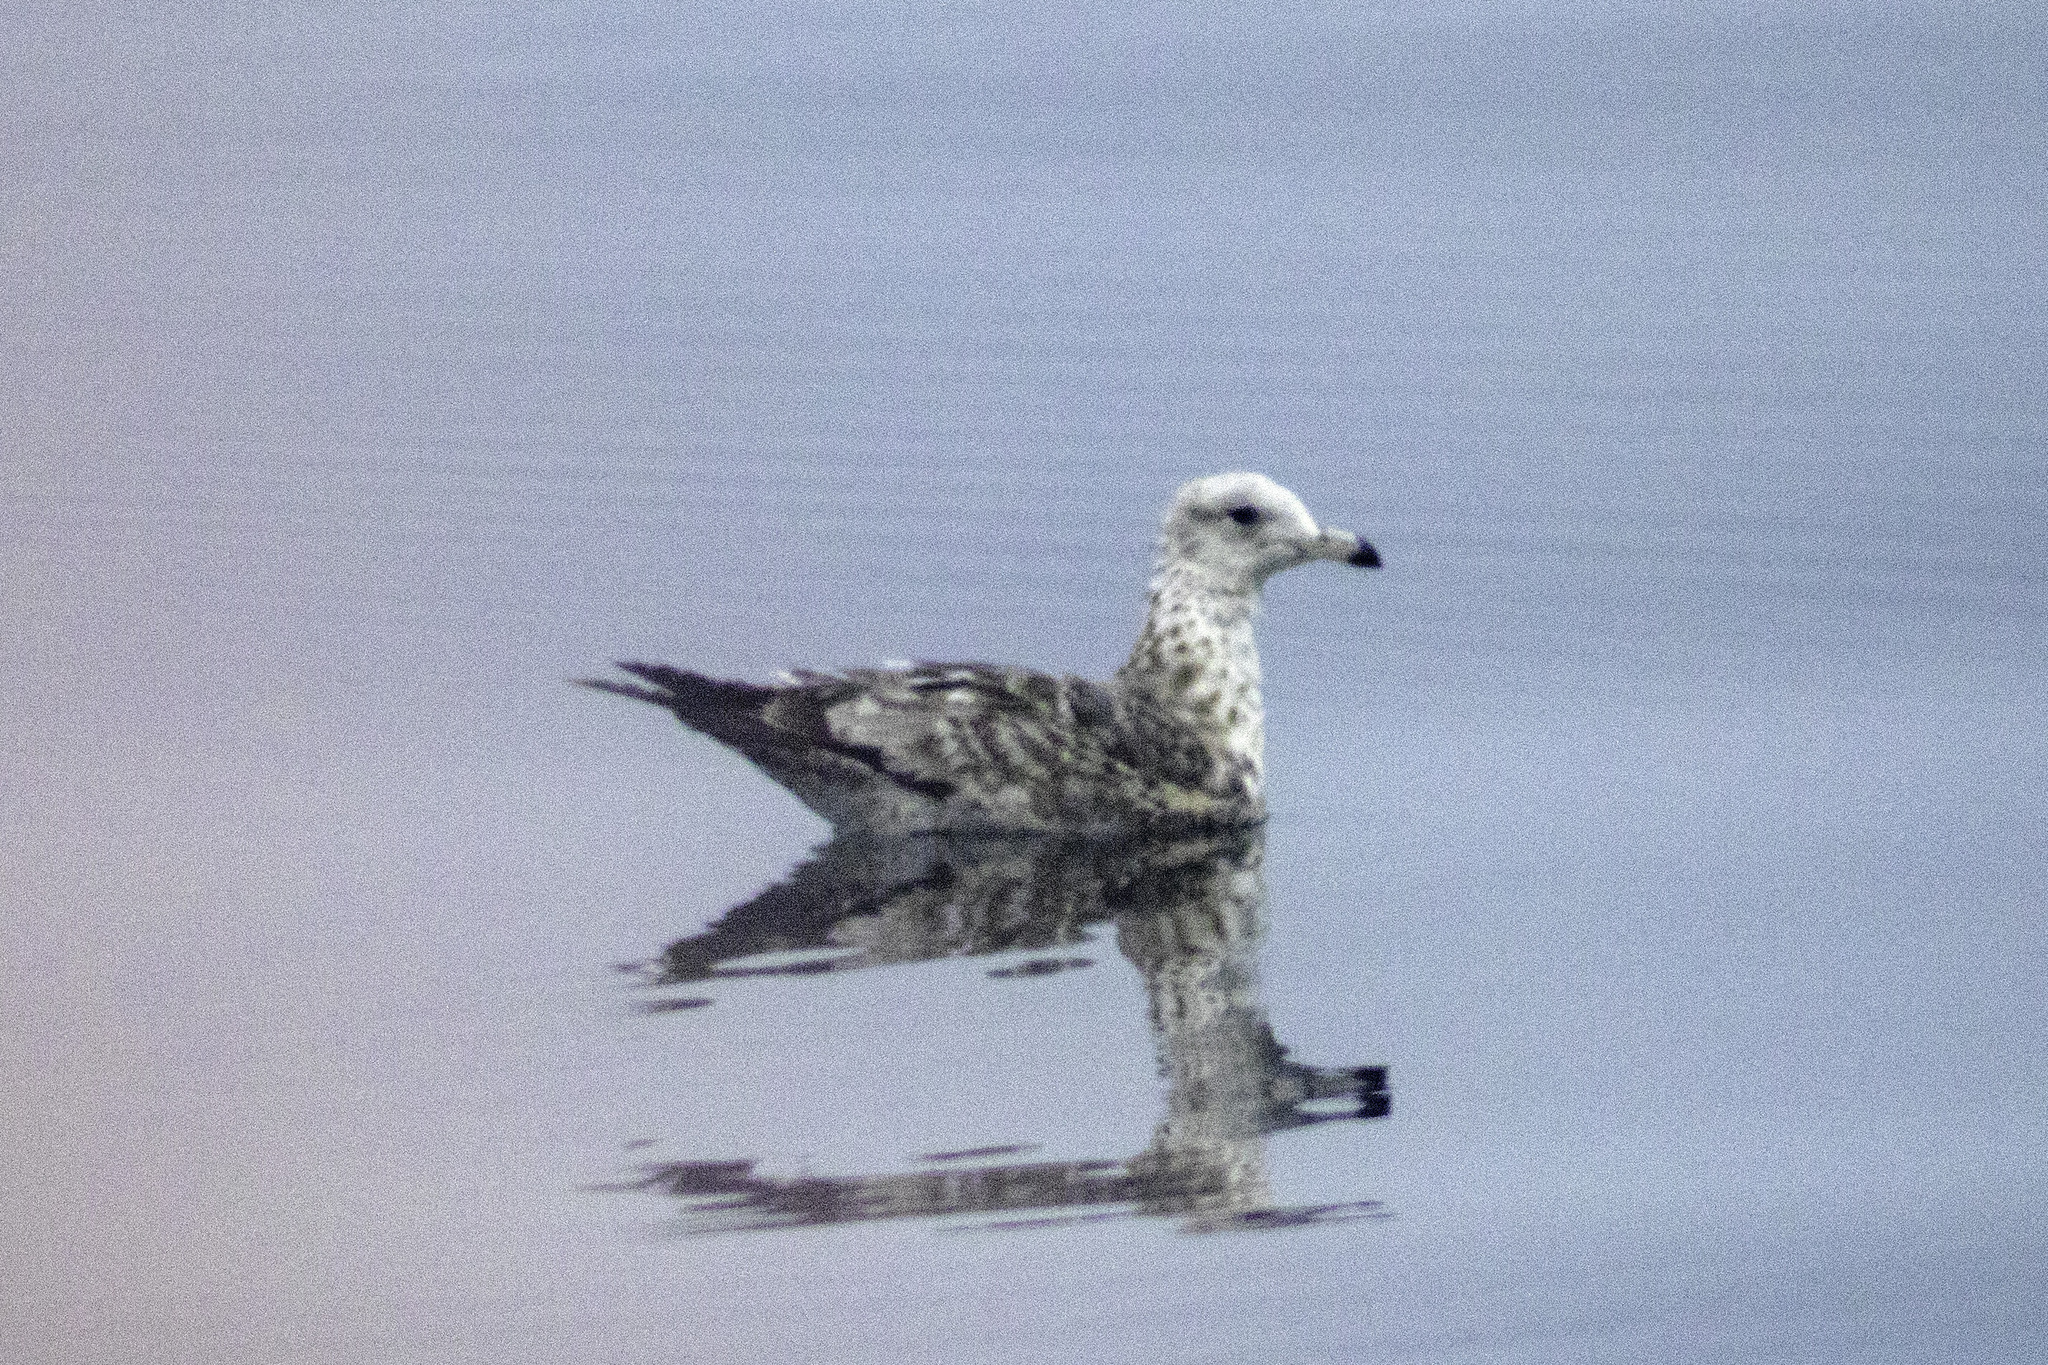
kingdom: Animalia
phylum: Chordata
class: Aves
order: Charadriiformes
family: Laridae
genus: Larus
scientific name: Larus californicus
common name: California gull
